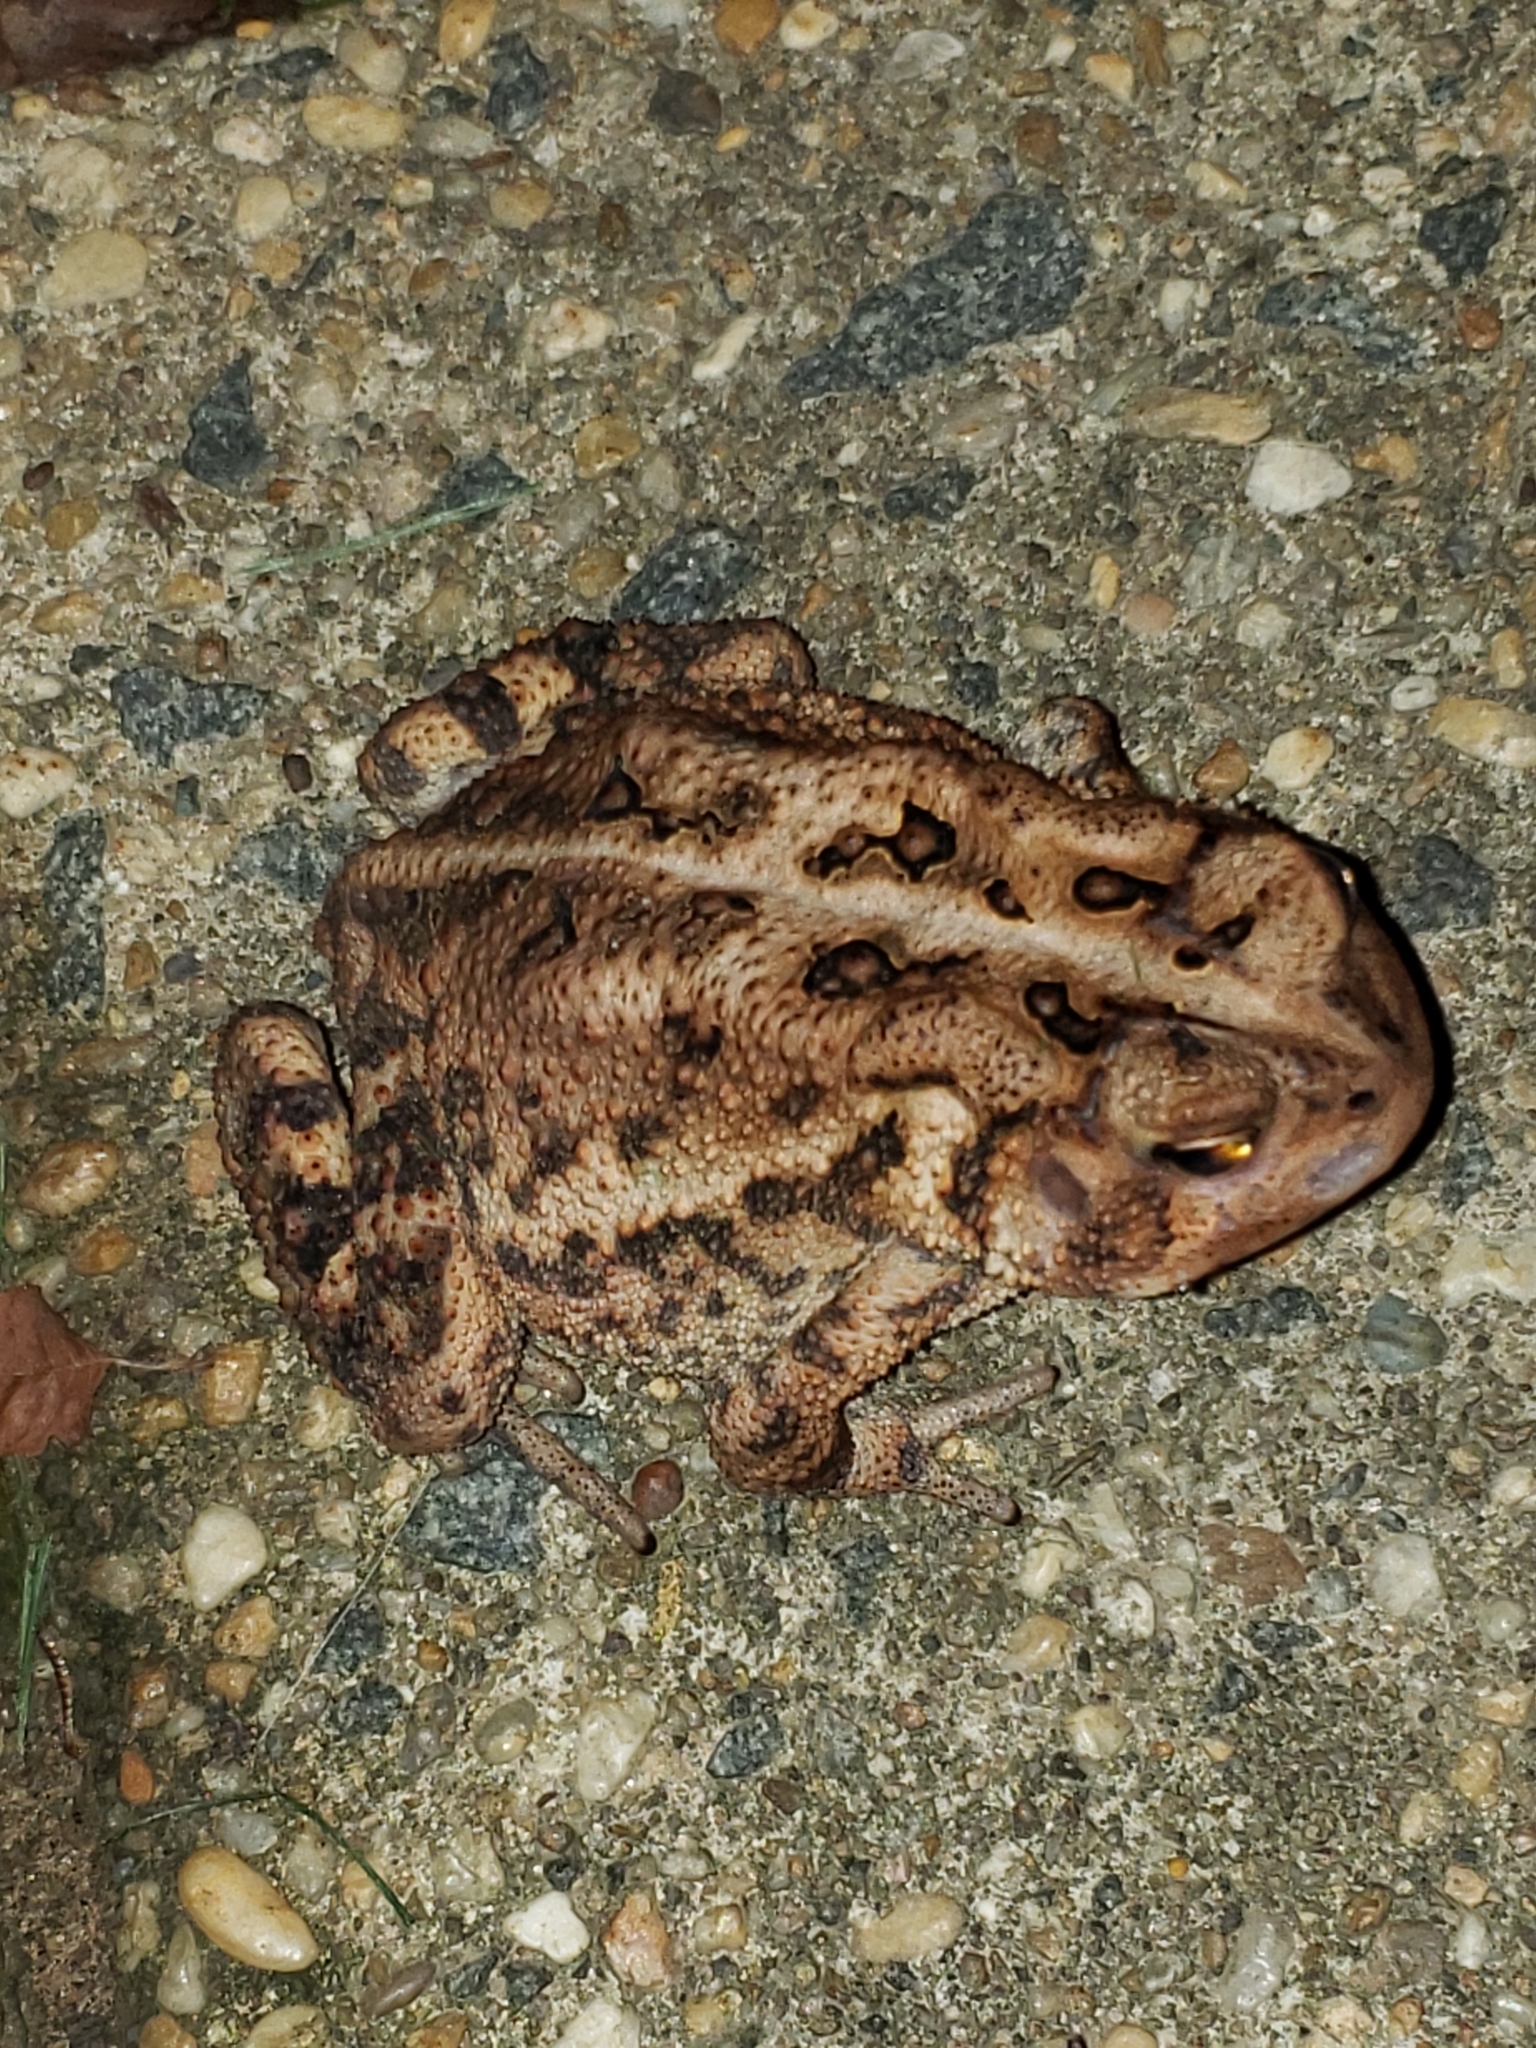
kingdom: Animalia
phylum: Chordata
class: Amphibia
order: Anura
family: Bufonidae
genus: Anaxyrus
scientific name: Anaxyrus americanus
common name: American toad
